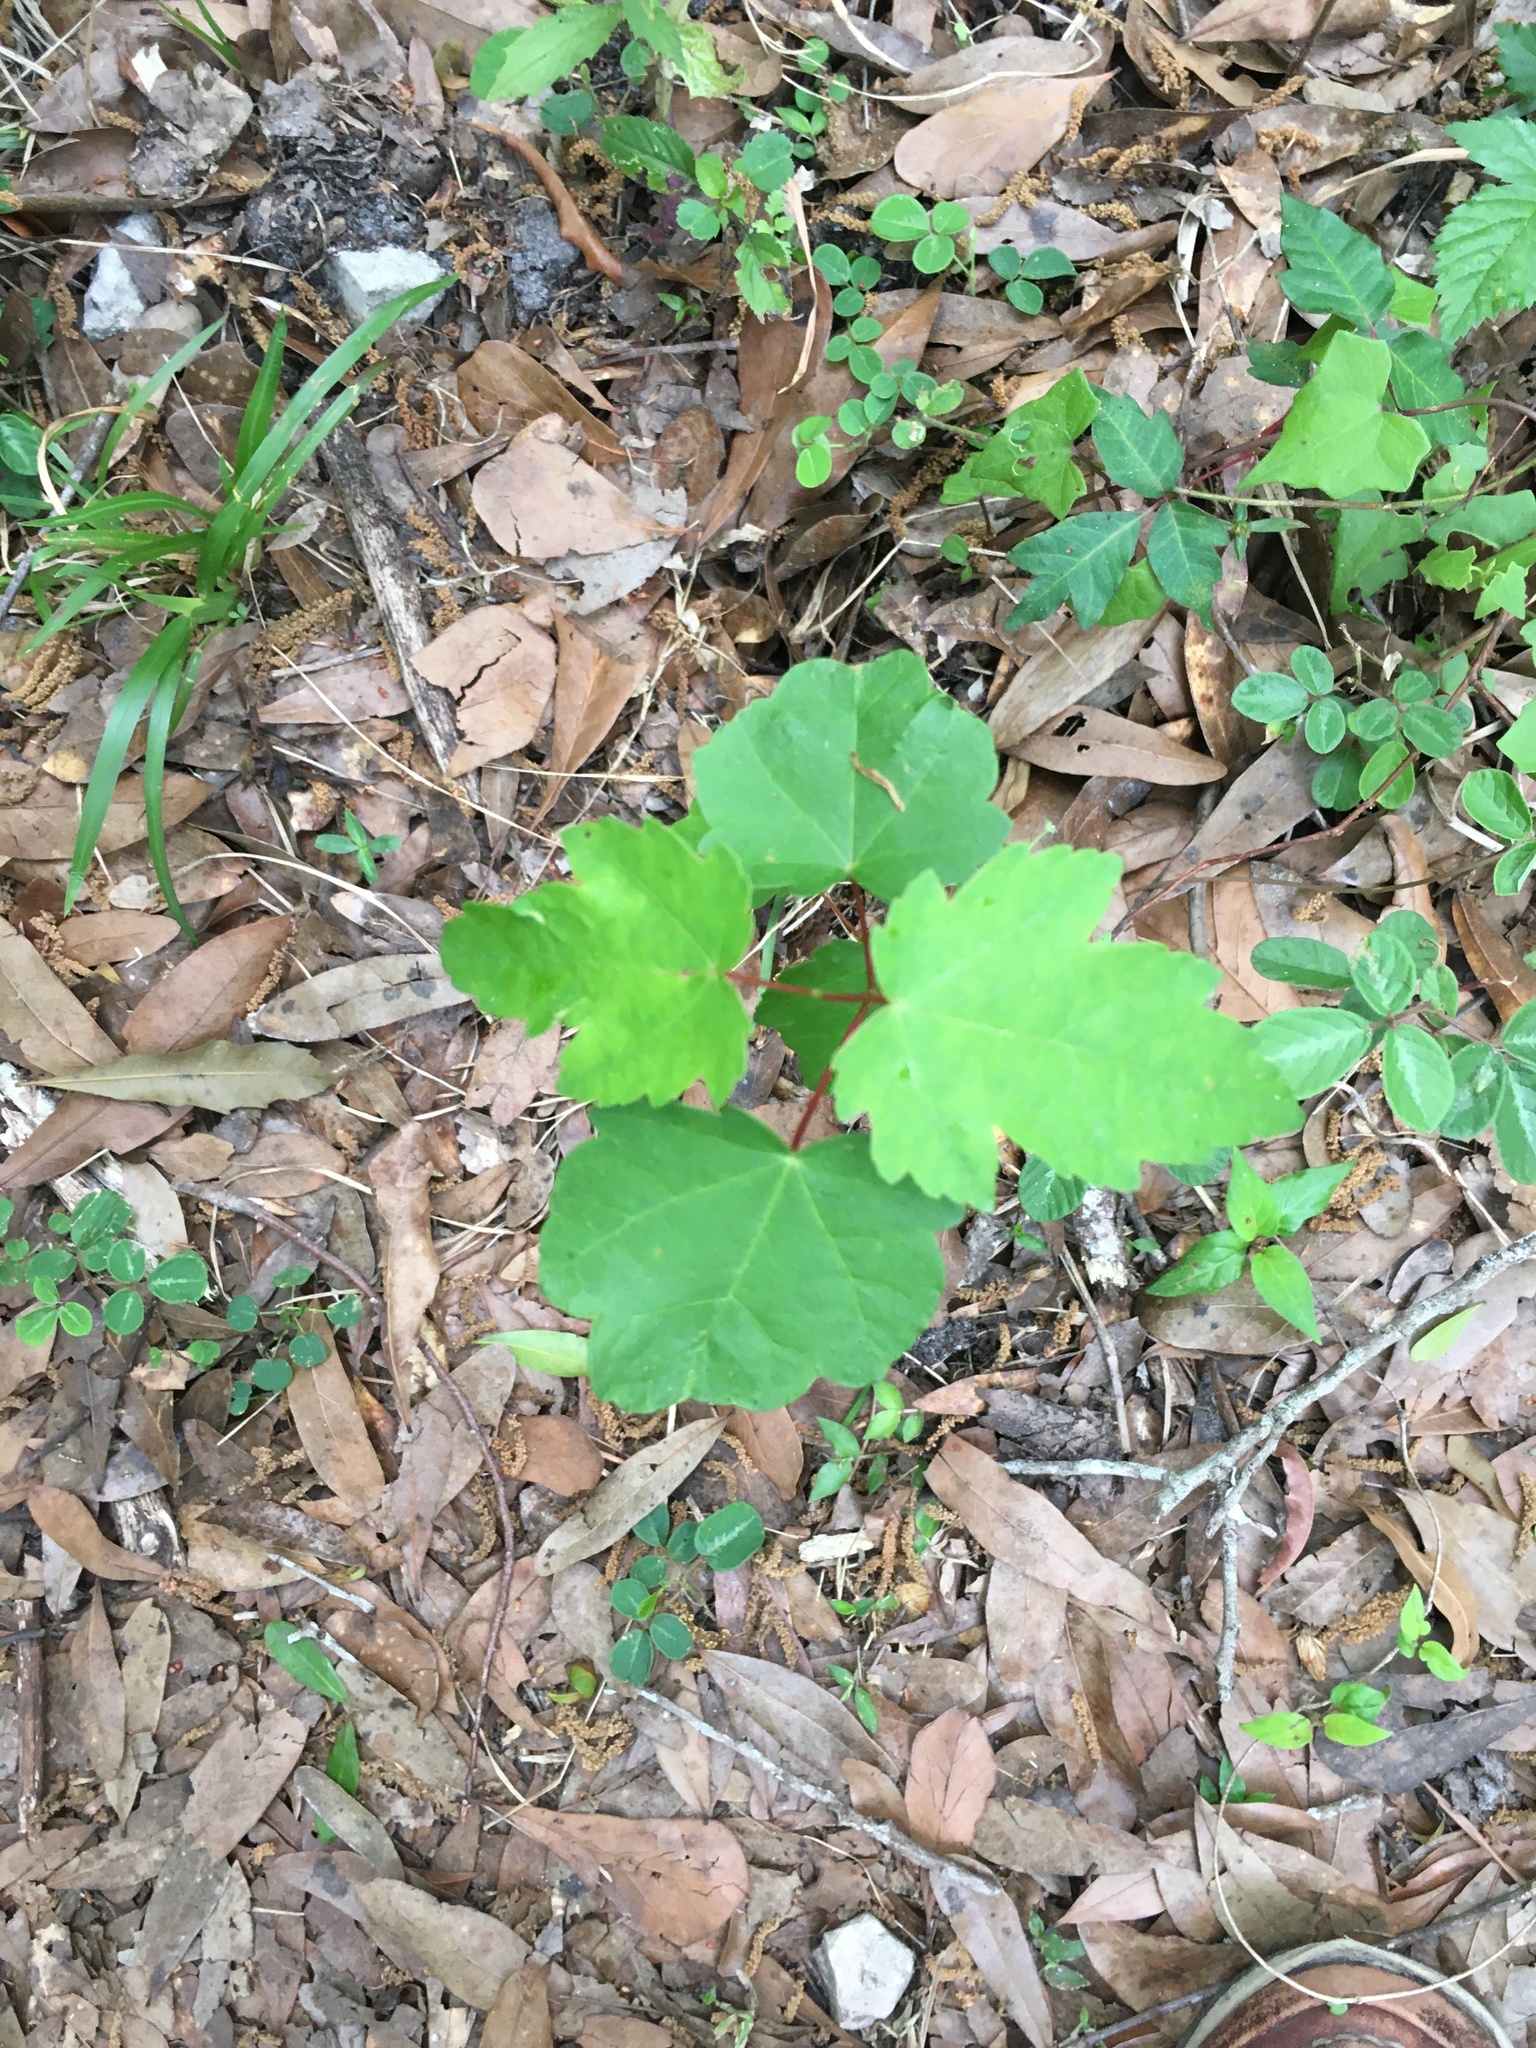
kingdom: Plantae
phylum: Tracheophyta
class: Magnoliopsida
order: Sapindales
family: Sapindaceae
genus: Acer
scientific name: Acer rubrum
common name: Red maple
